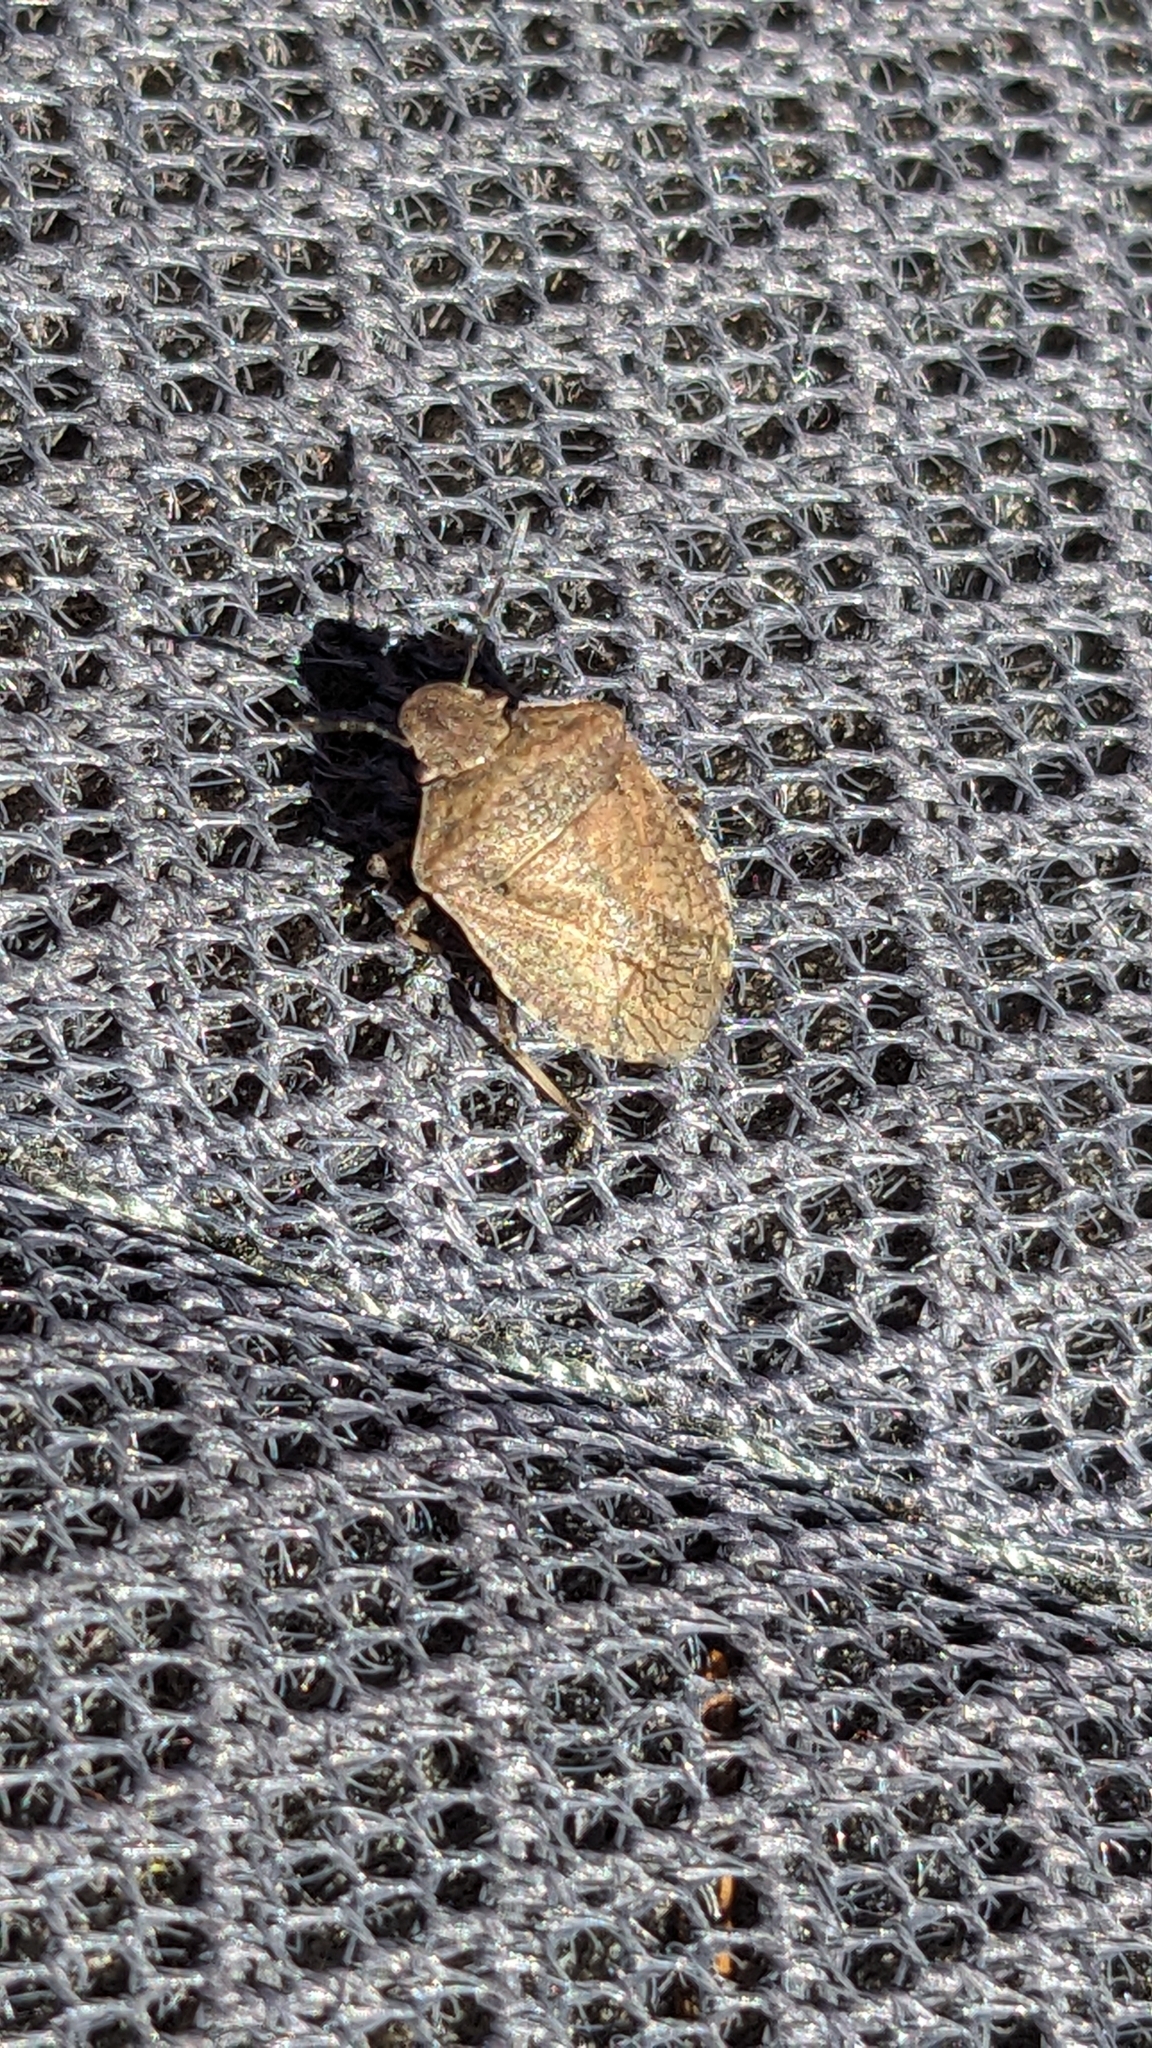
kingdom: Animalia
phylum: Arthropoda
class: Insecta
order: Hemiptera
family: Pentatomidae
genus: Dictyotus
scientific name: Dictyotus caenosus
